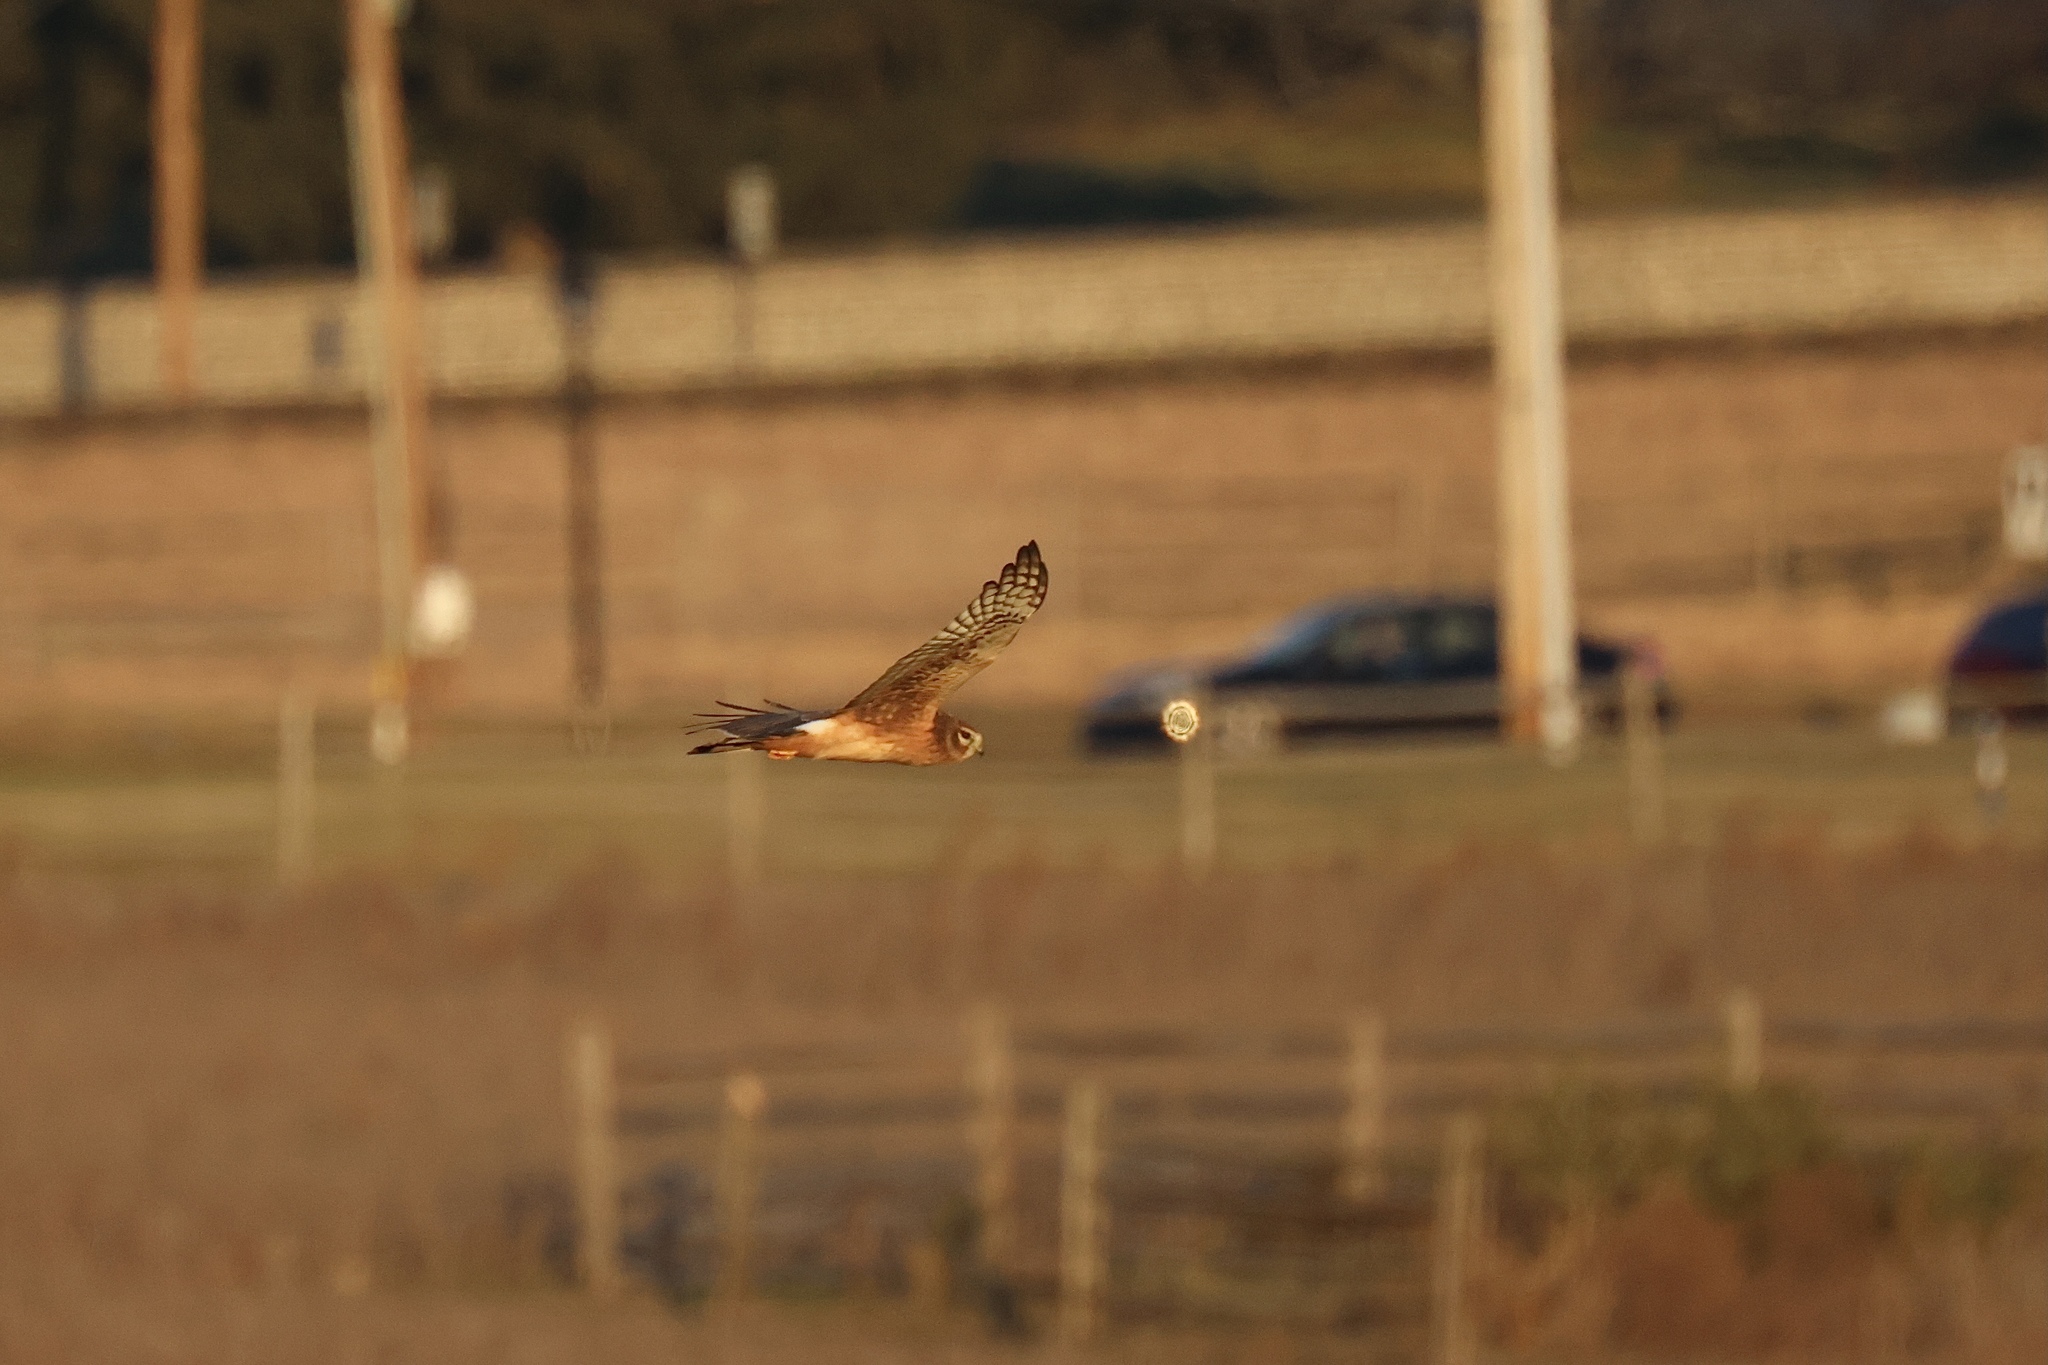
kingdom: Animalia
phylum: Chordata
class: Aves
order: Accipitriformes
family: Accipitridae
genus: Circus
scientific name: Circus cyaneus
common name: Hen harrier
